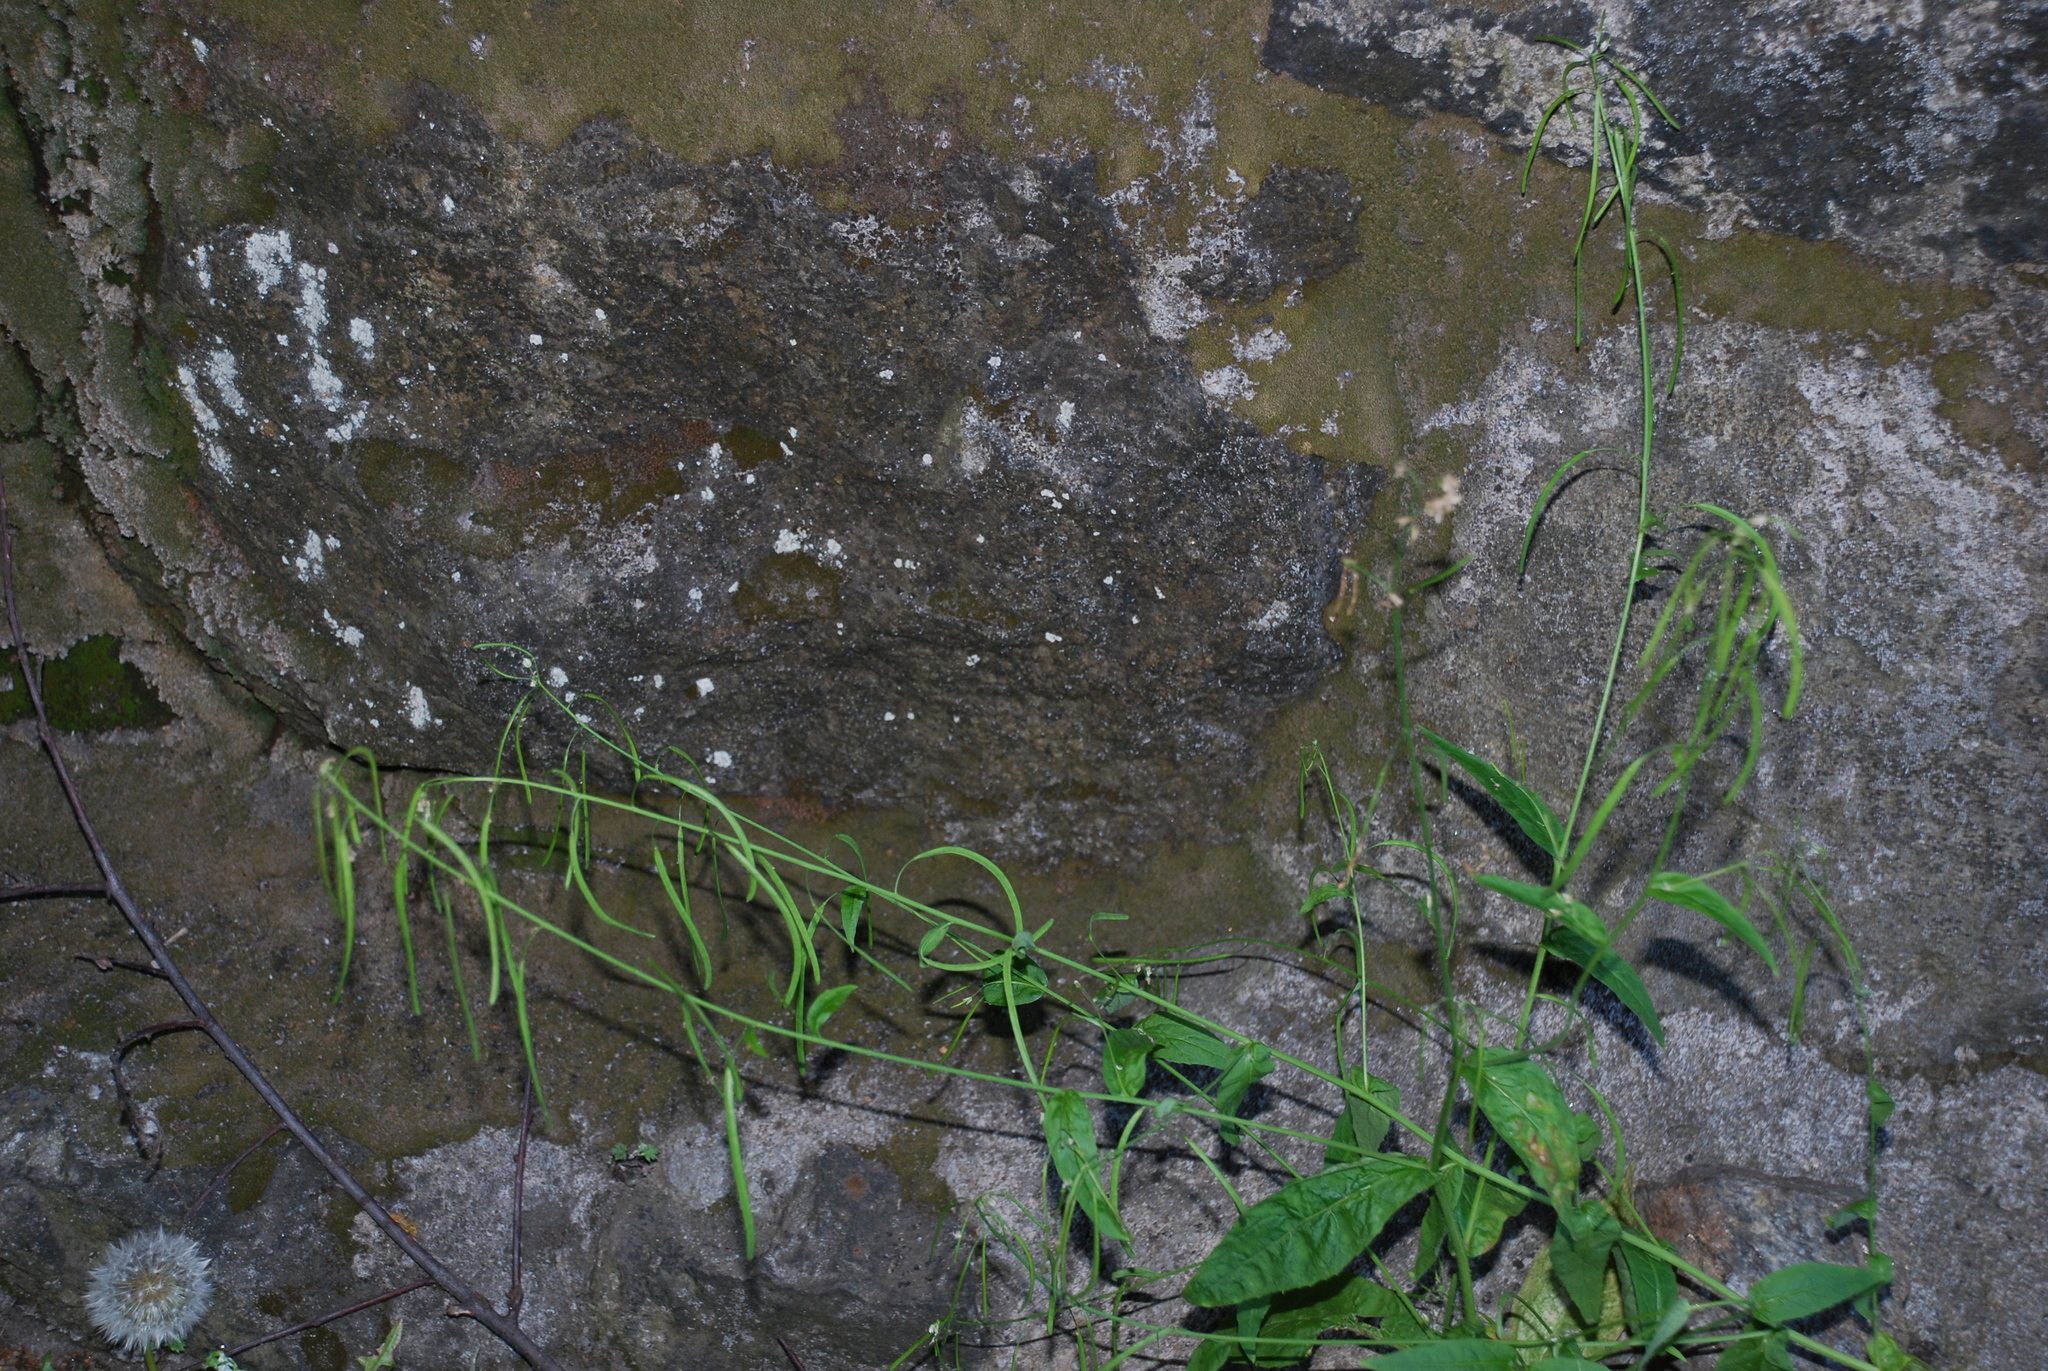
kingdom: Plantae
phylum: Tracheophyta
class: Magnoliopsida
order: Brassicales
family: Brassicaceae
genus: Catolobus
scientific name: Catolobus pendulus
